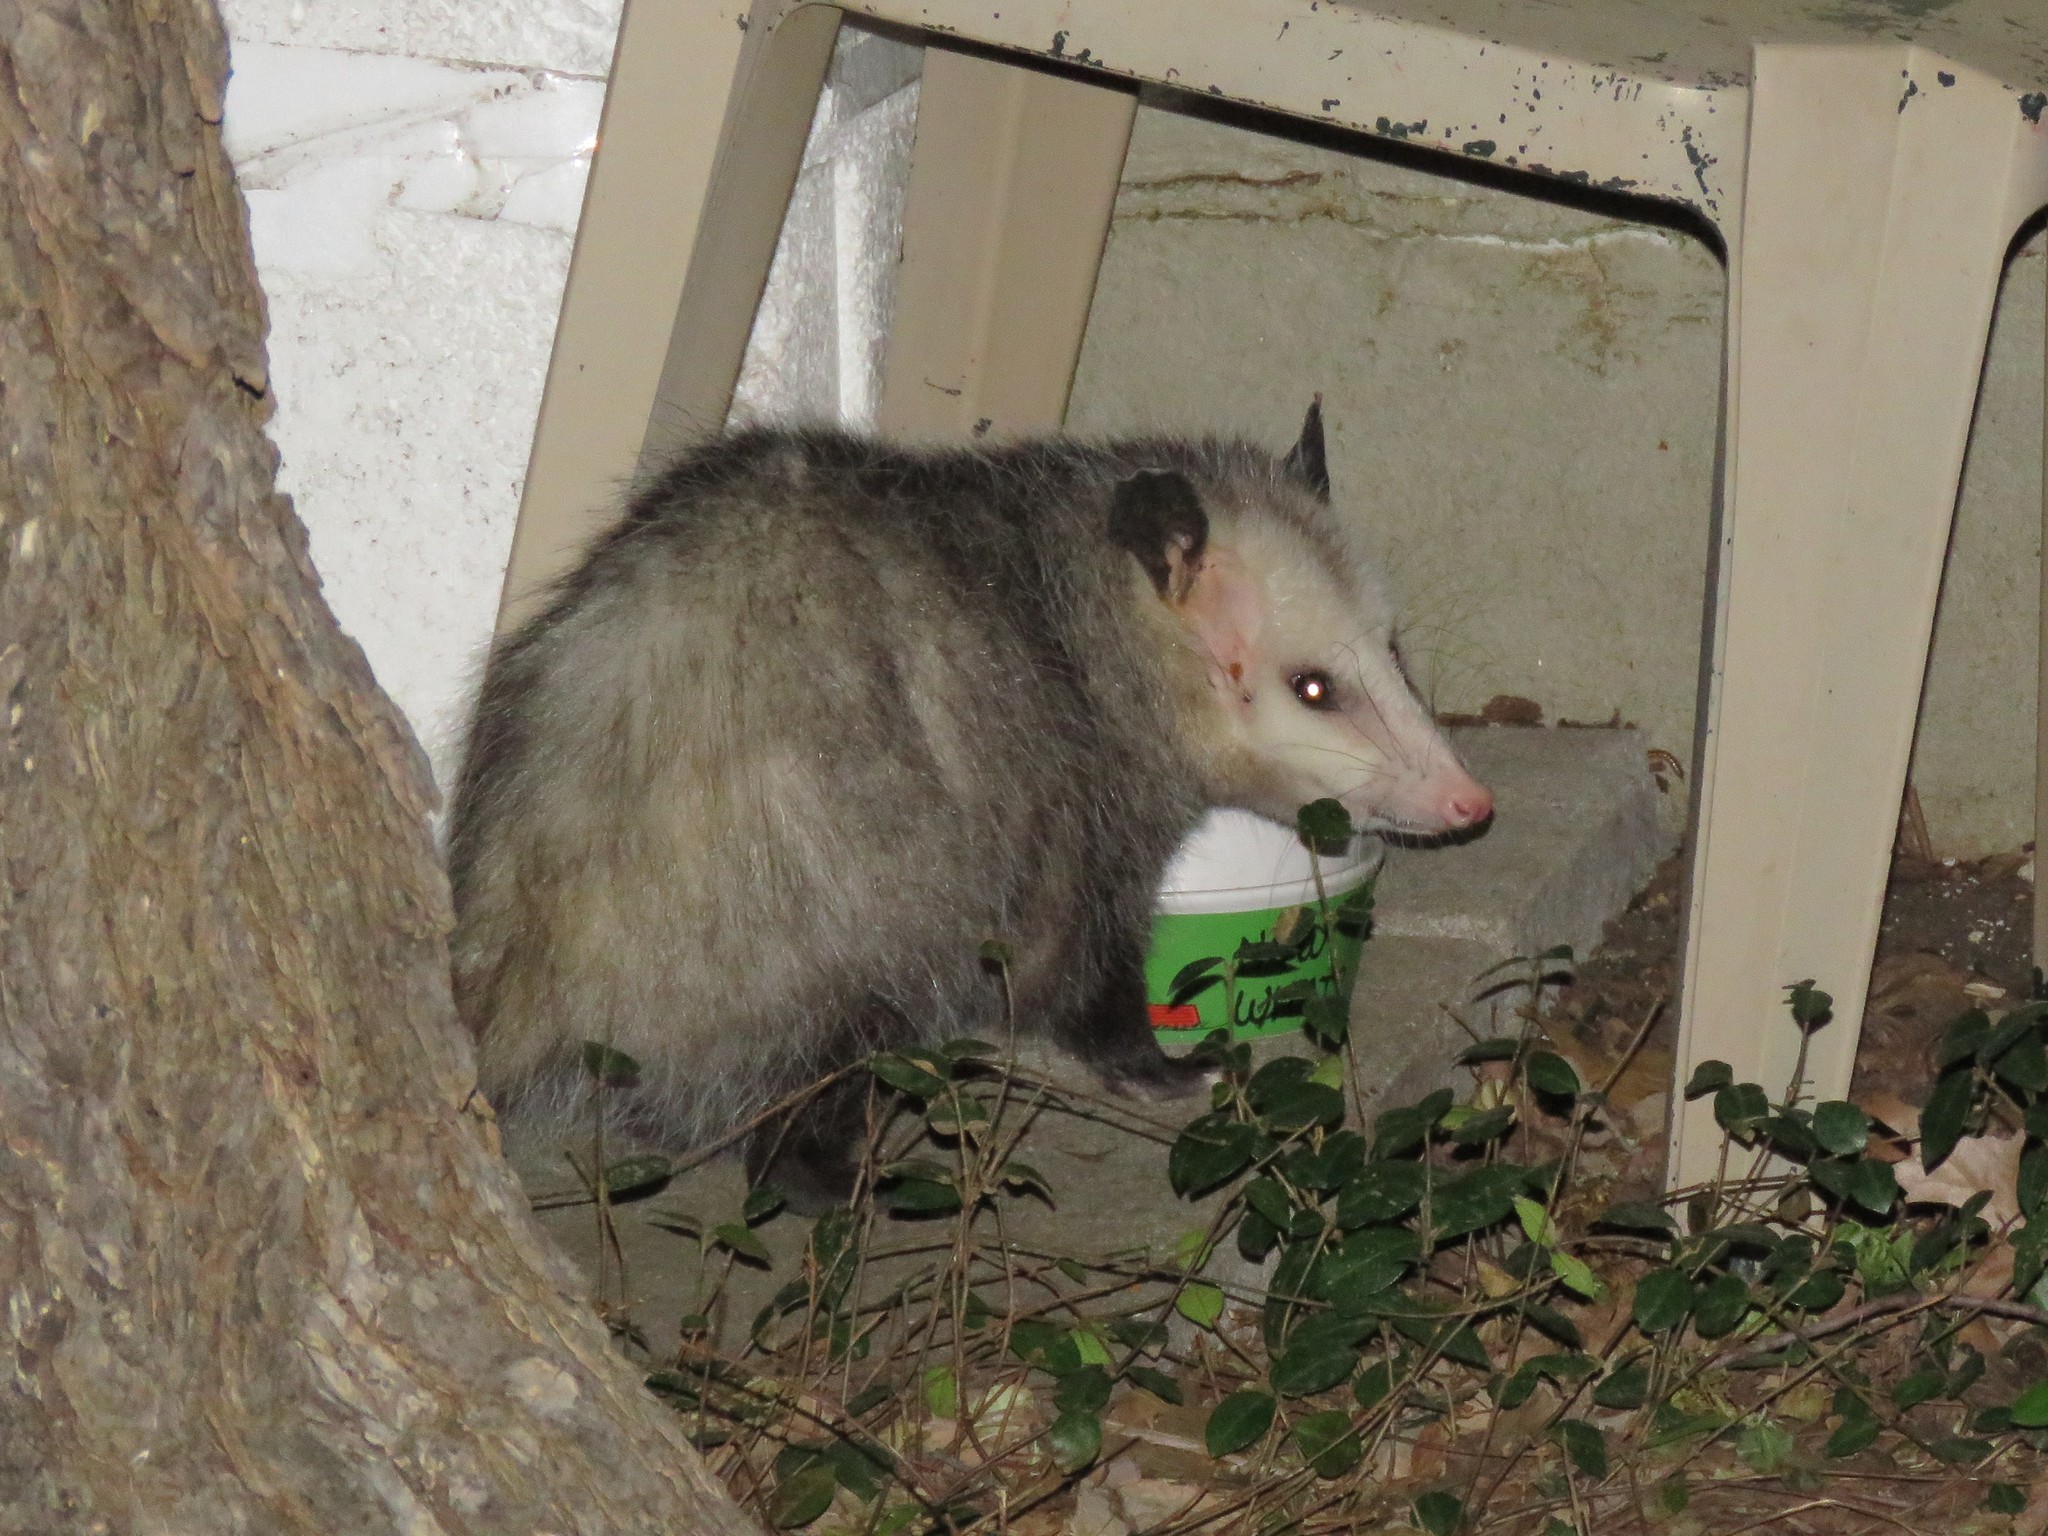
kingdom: Animalia
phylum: Chordata
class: Mammalia
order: Didelphimorphia
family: Didelphidae
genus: Didelphis
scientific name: Didelphis virginiana
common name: Virginia opossum
